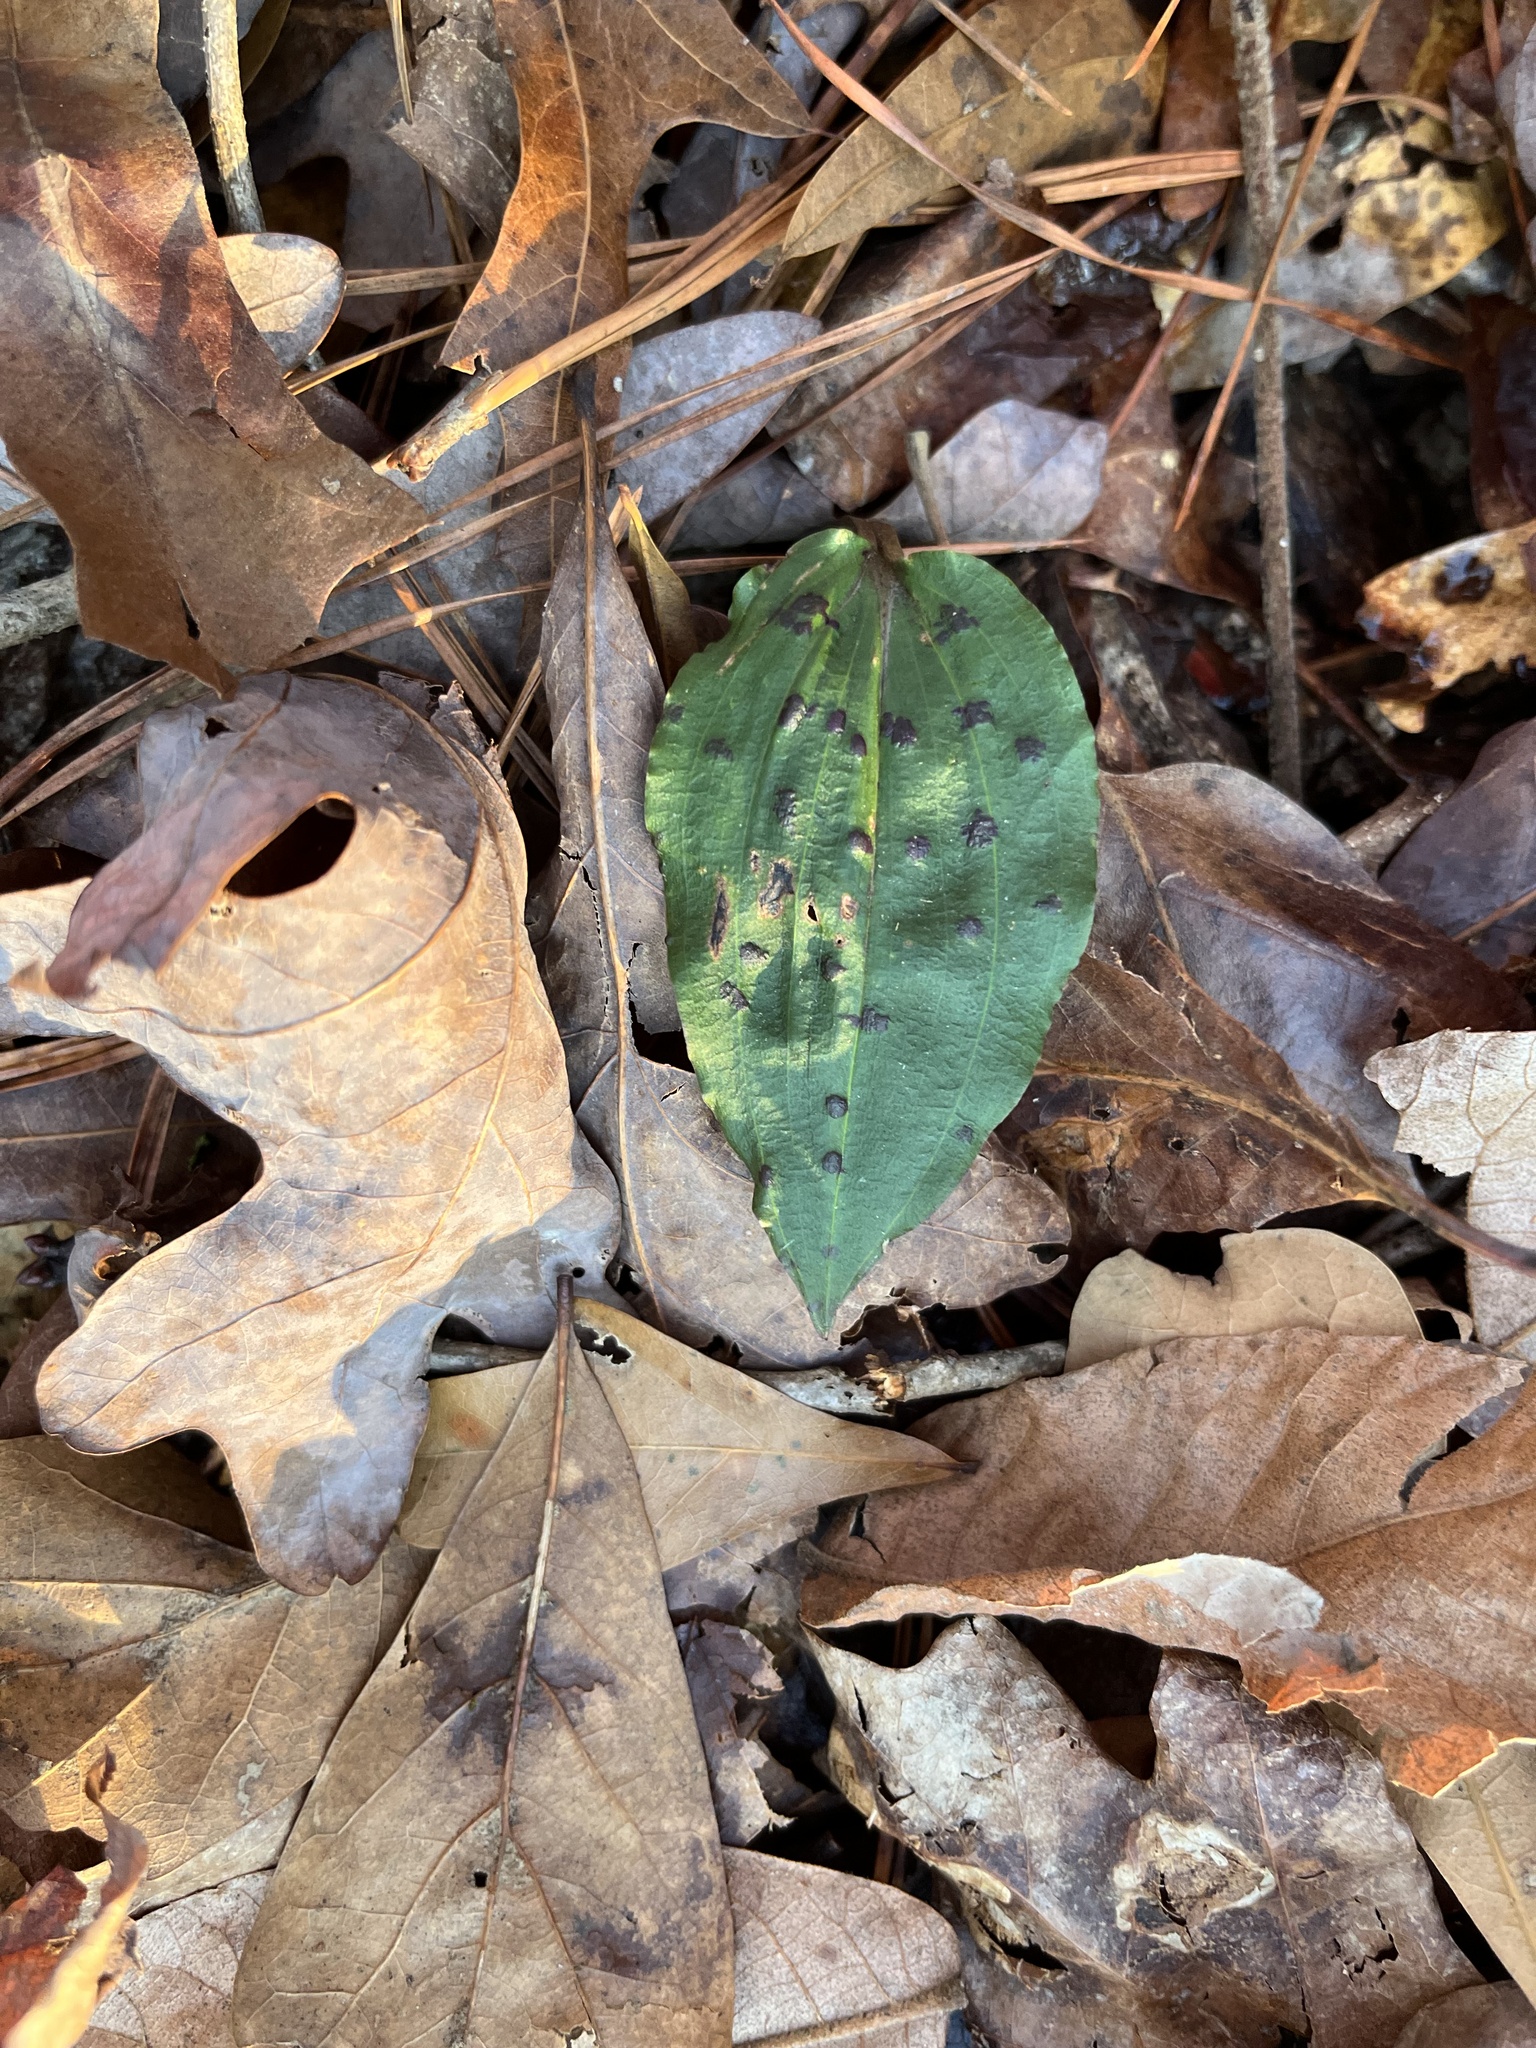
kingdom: Plantae
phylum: Tracheophyta
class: Liliopsida
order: Asparagales
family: Orchidaceae
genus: Tipularia
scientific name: Tipularia discolor
